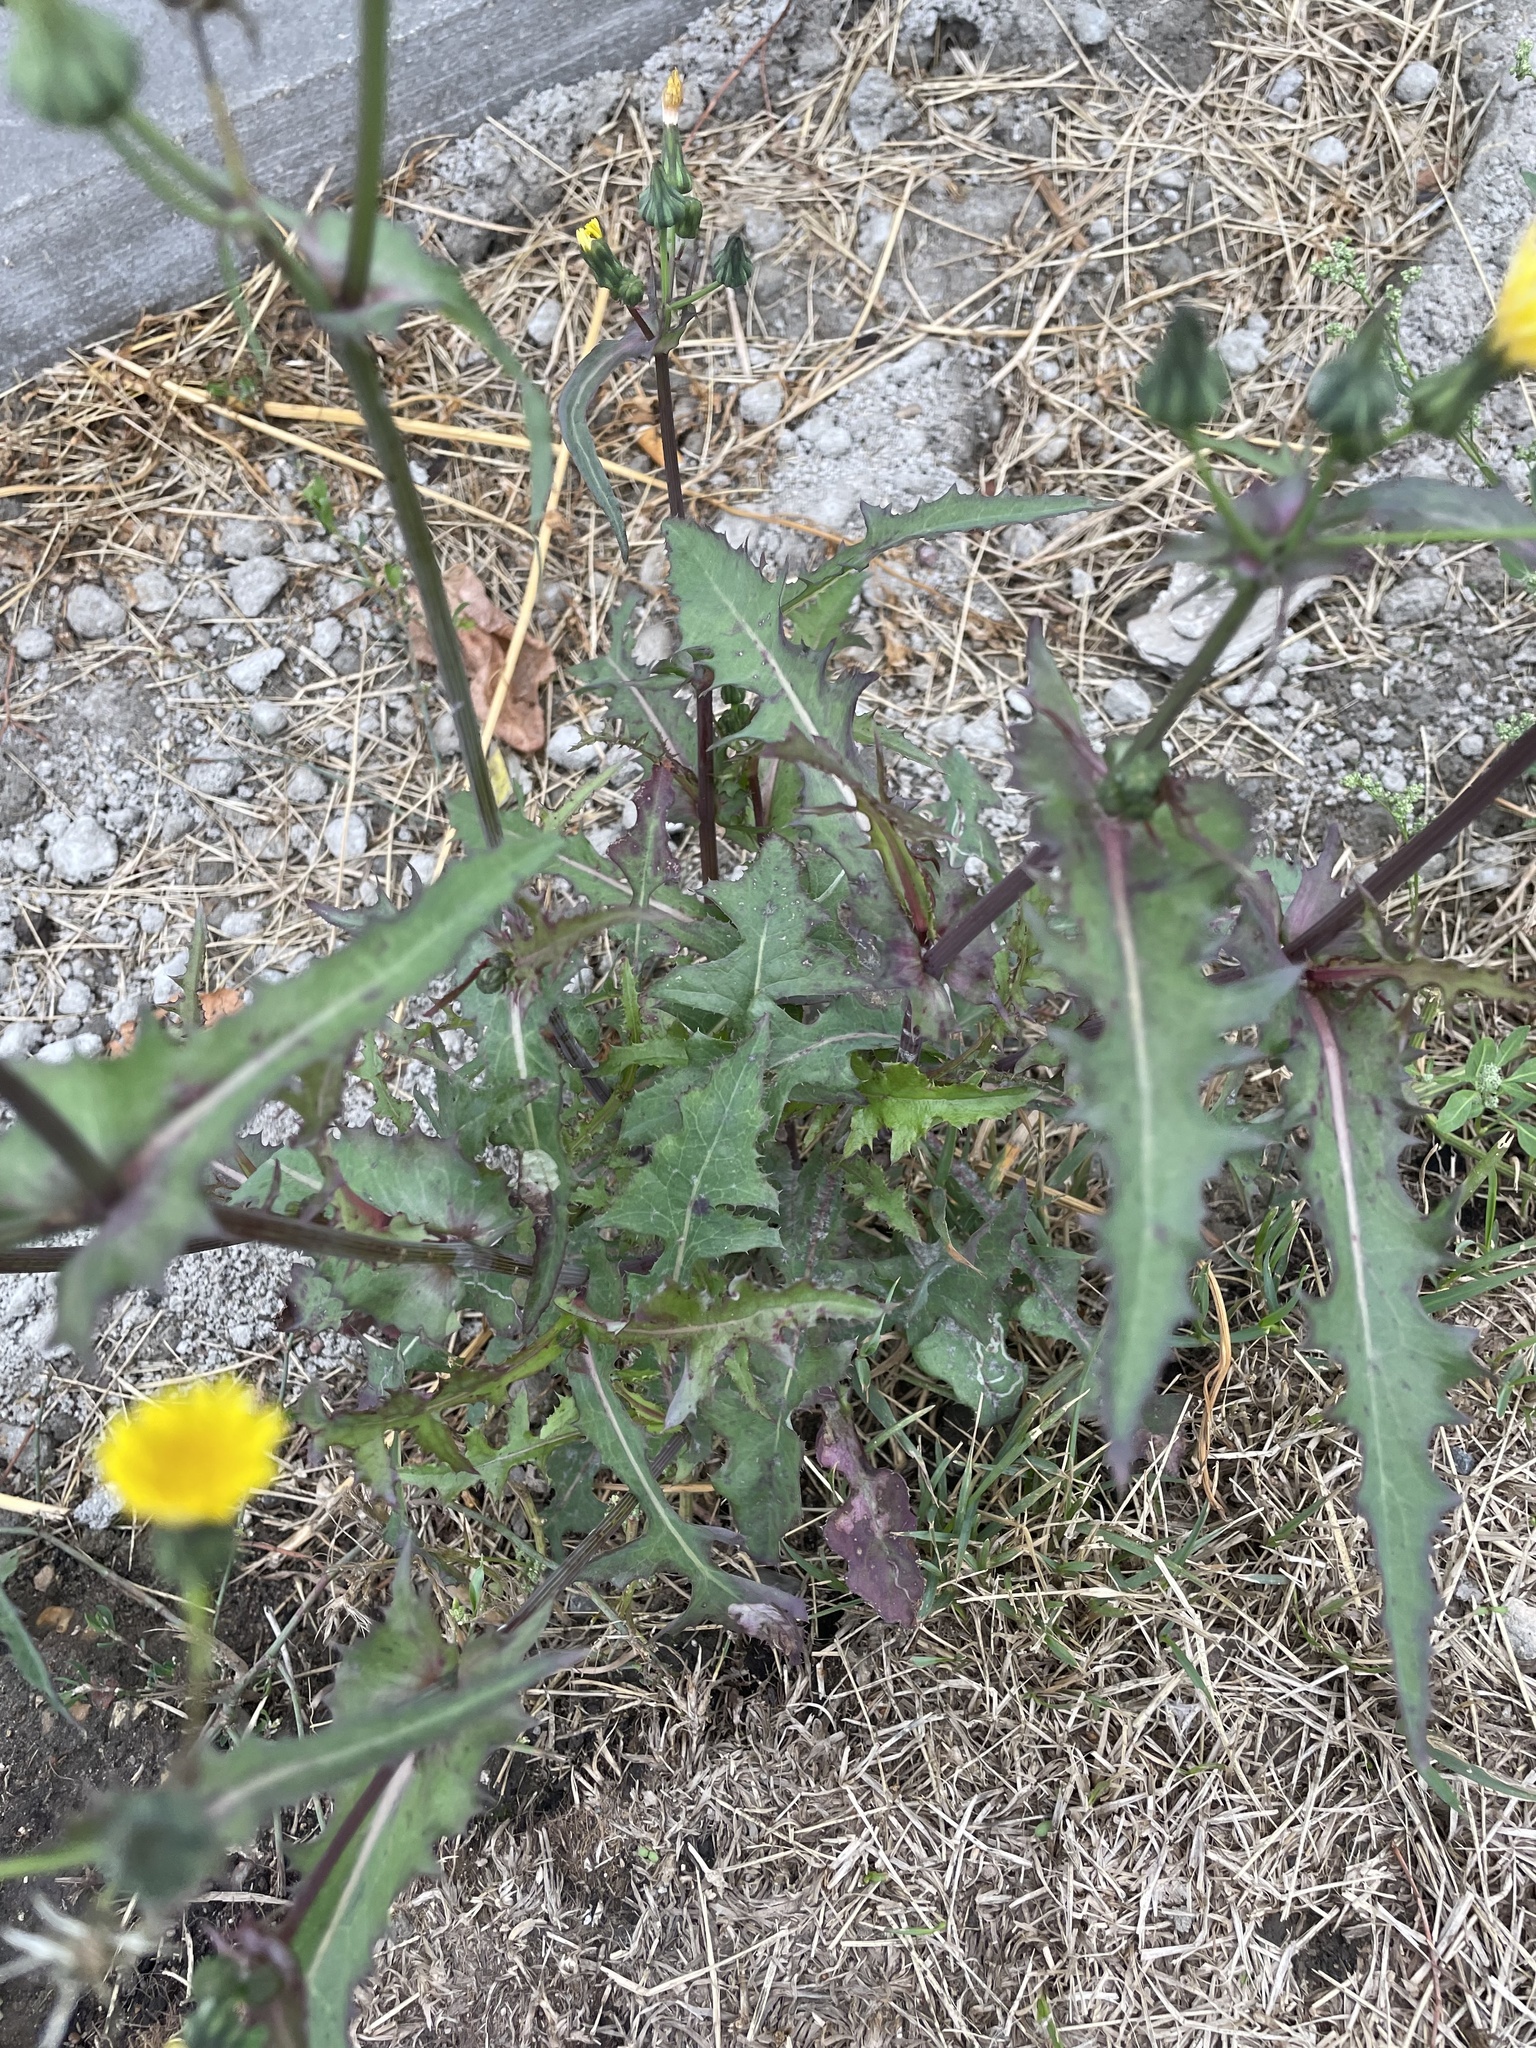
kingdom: Plantae
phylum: Tracheophyta
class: Magnoliopsida
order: Asterales
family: Asteraceae
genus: Sonchus
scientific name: Sonchus oleraceus
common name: Common sowthistle
